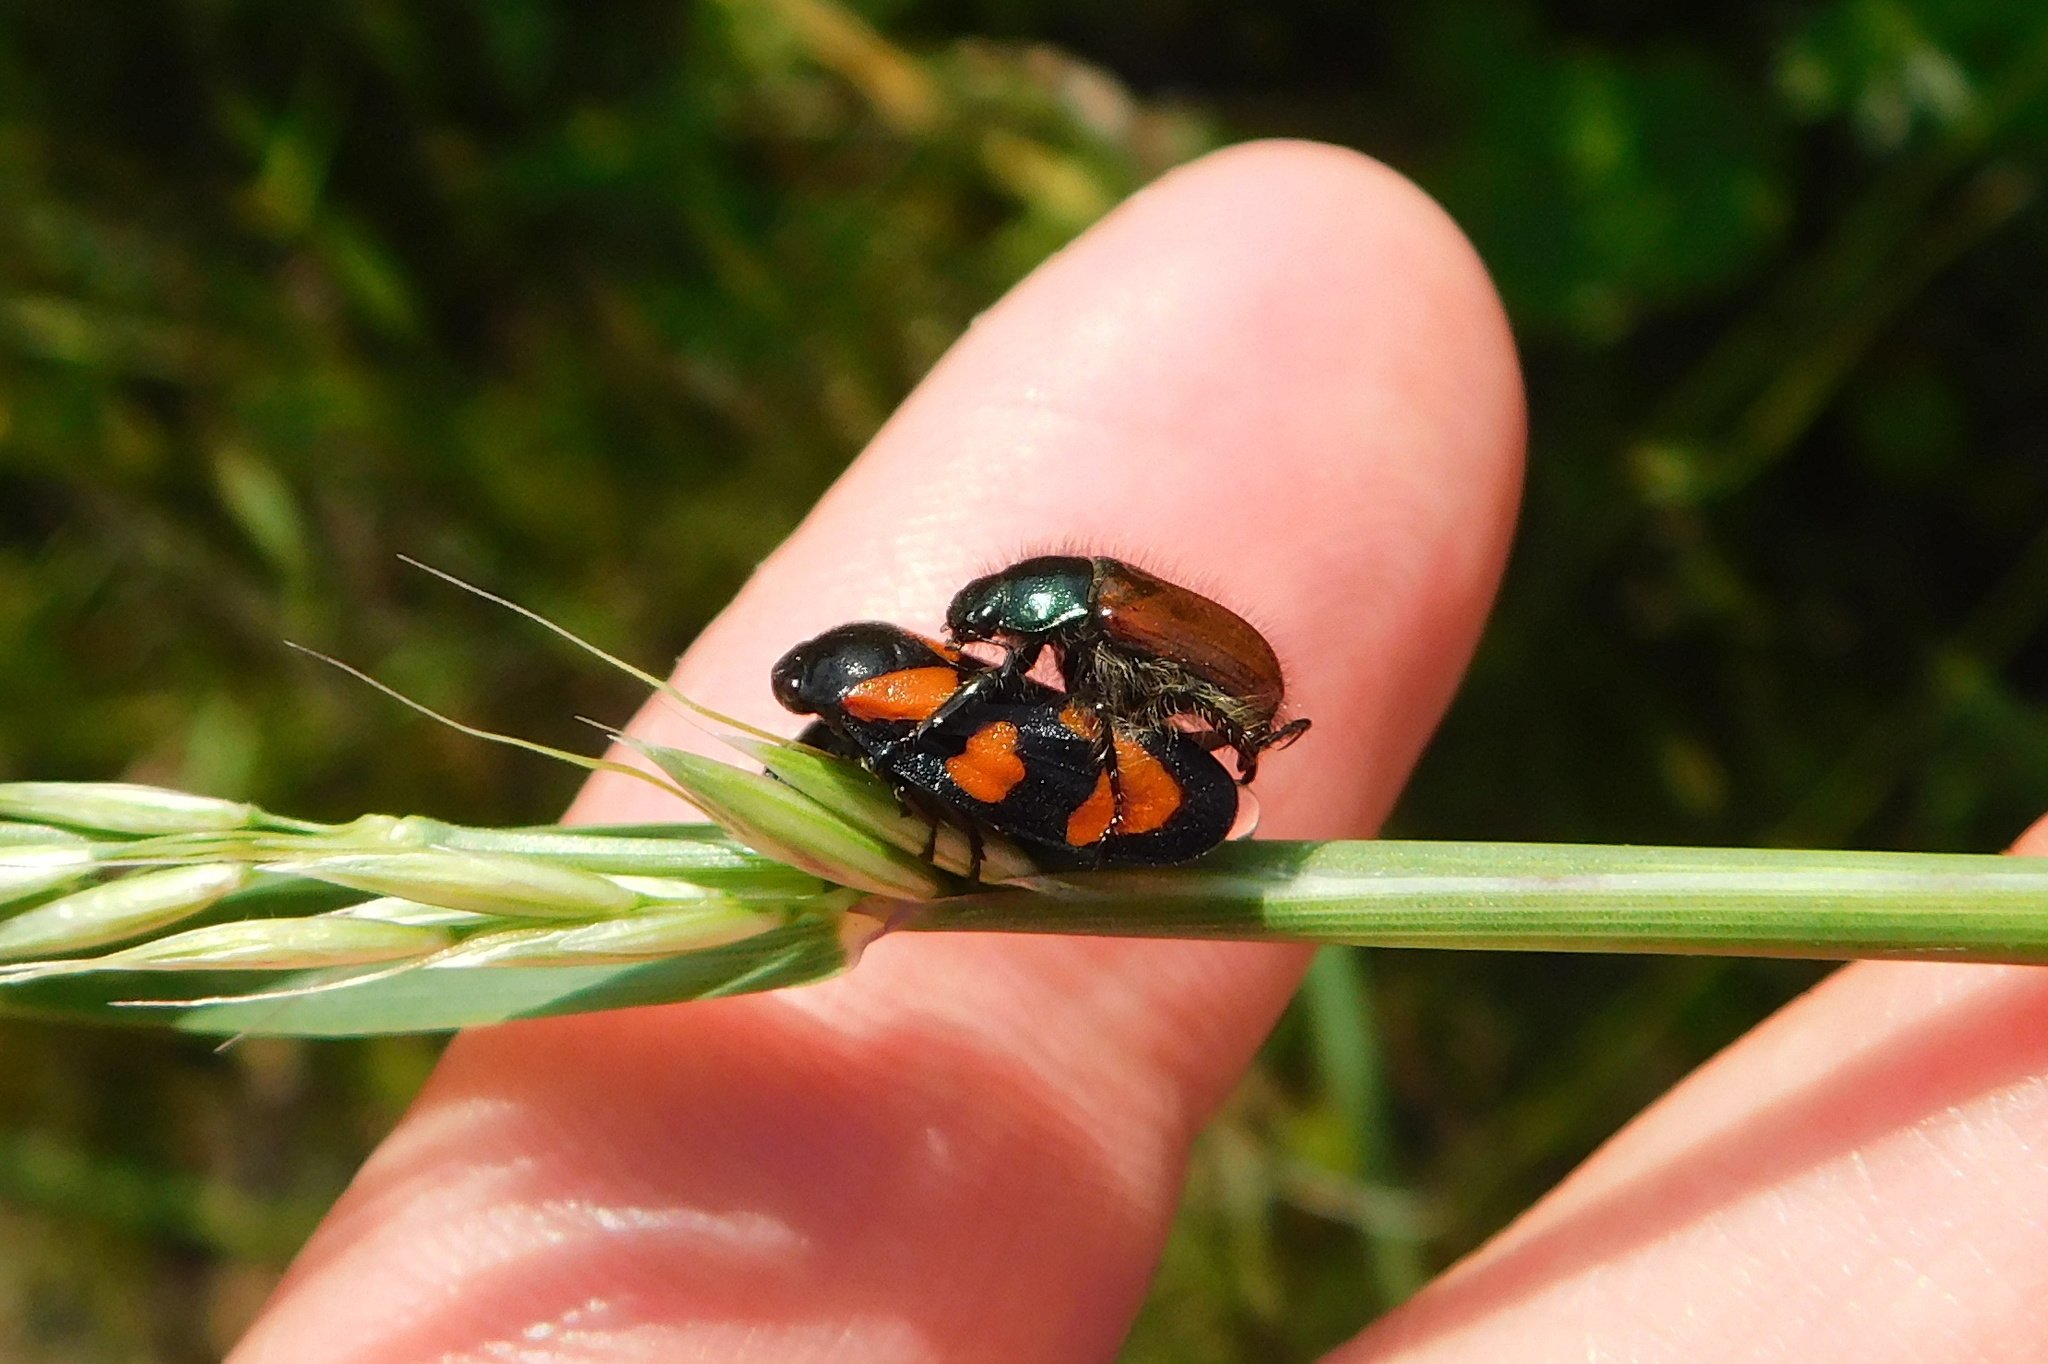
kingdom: Animalia
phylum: Arthropoda
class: Insecta
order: Hemiptera
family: Cercopidae
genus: Cercopis
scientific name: Cercopis vulnerata
